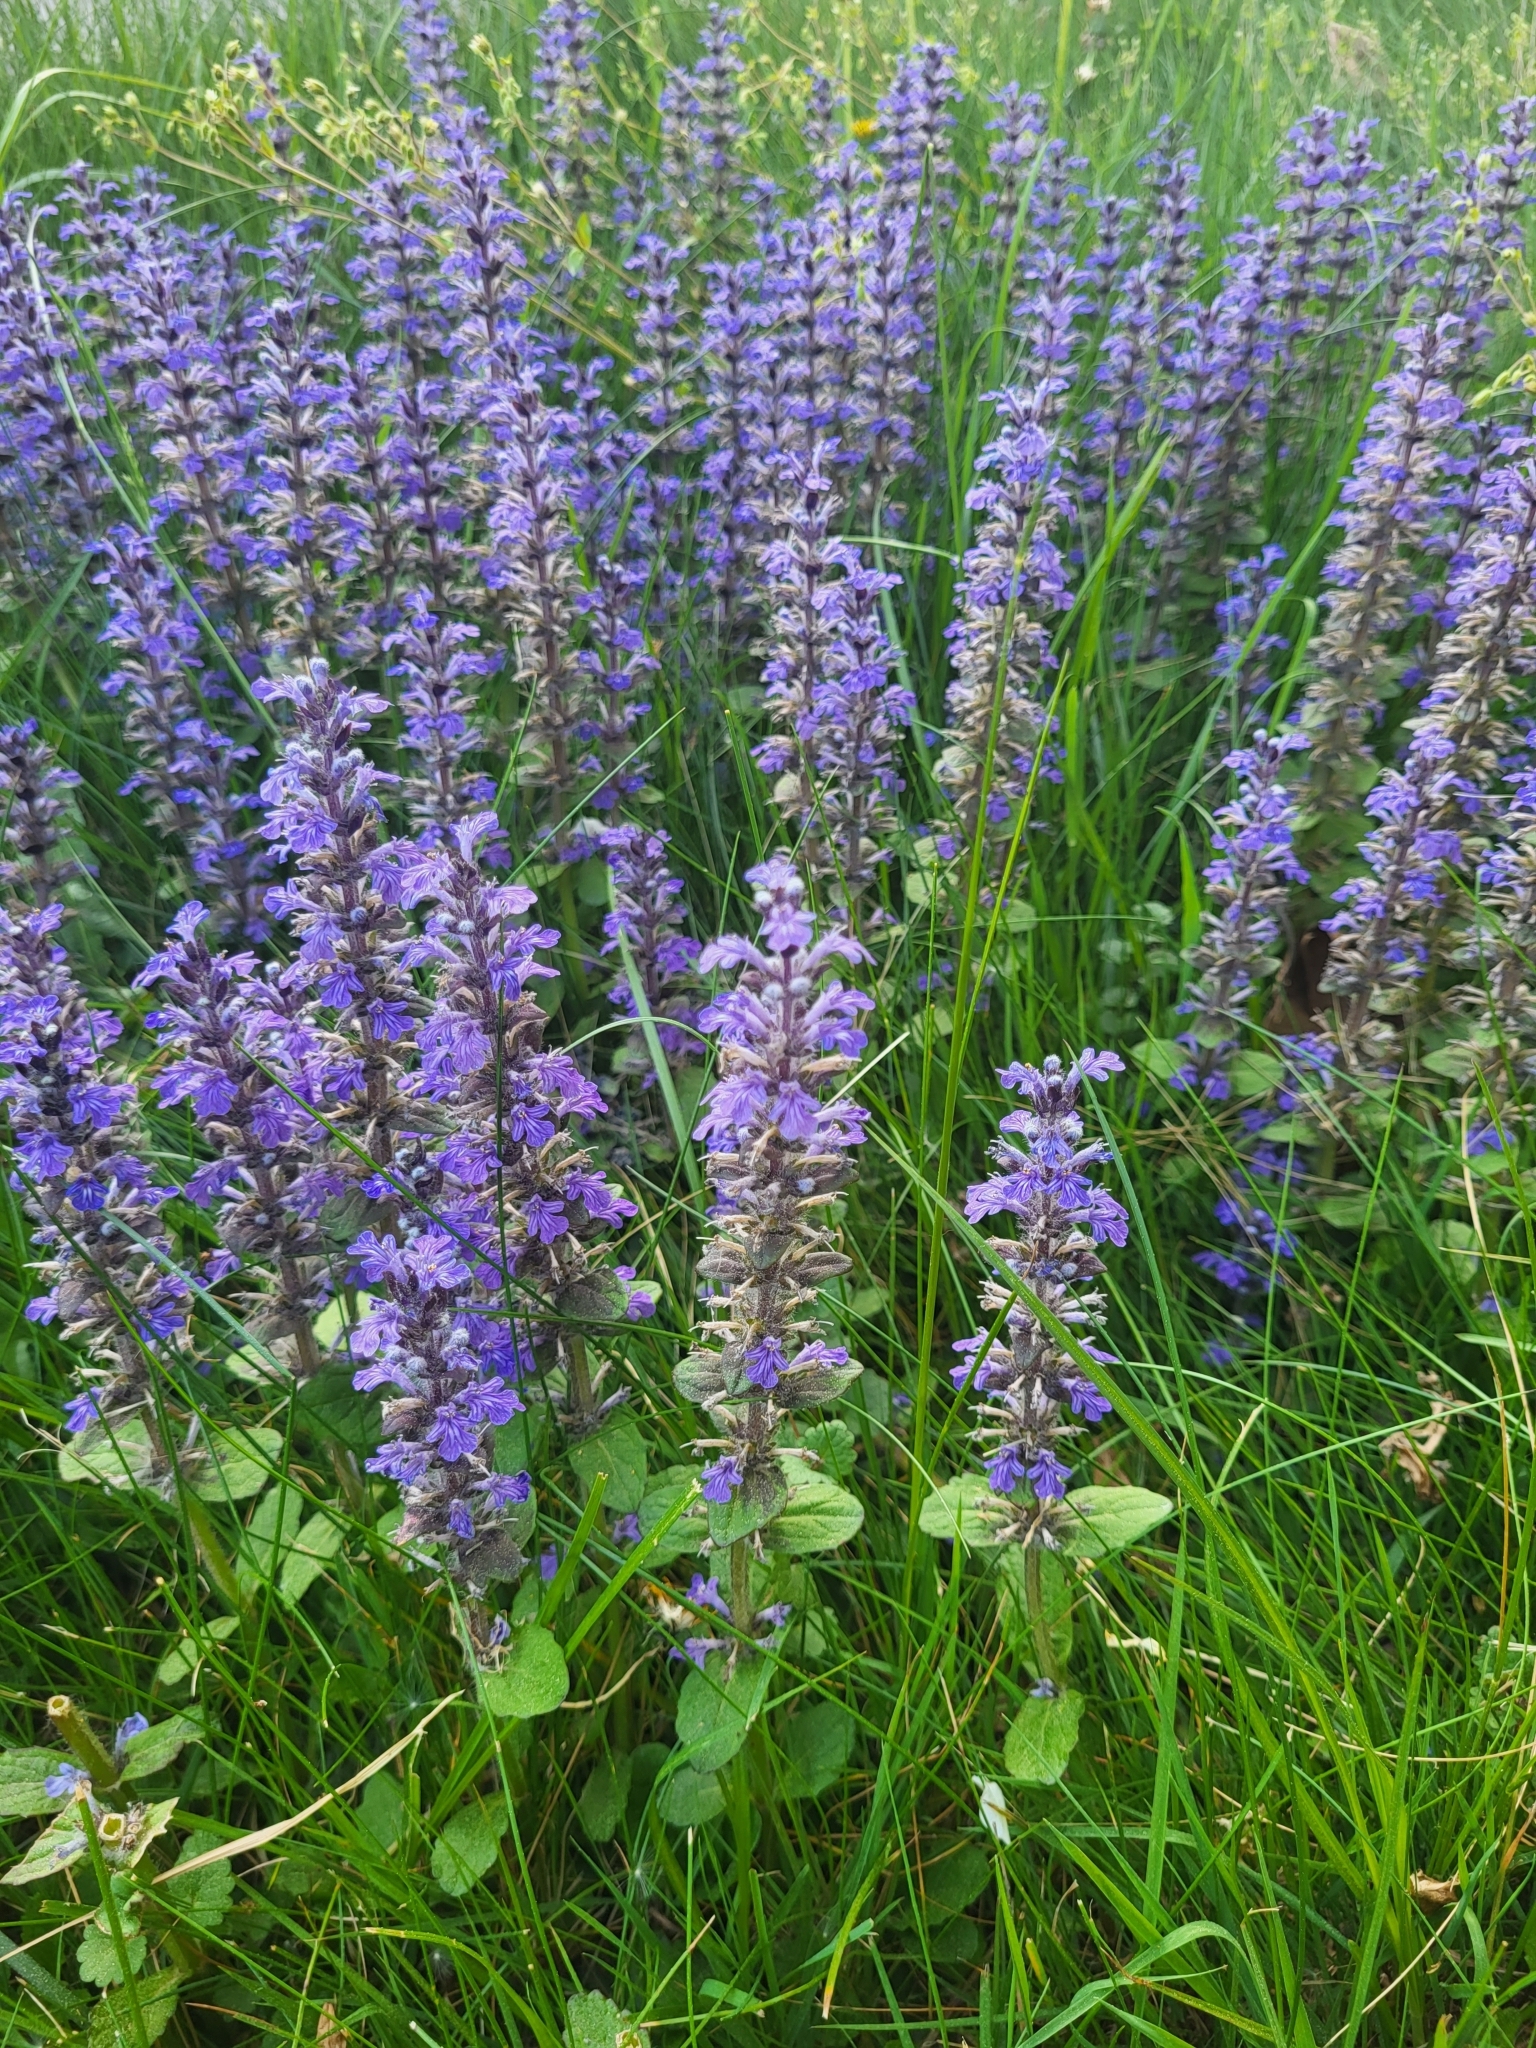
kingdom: Plantae
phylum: Tracheophyta
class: Magnoliopsida
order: Lamiales
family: Lamiaceae
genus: Ajuga
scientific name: Ajuga reptans
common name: Bugle
